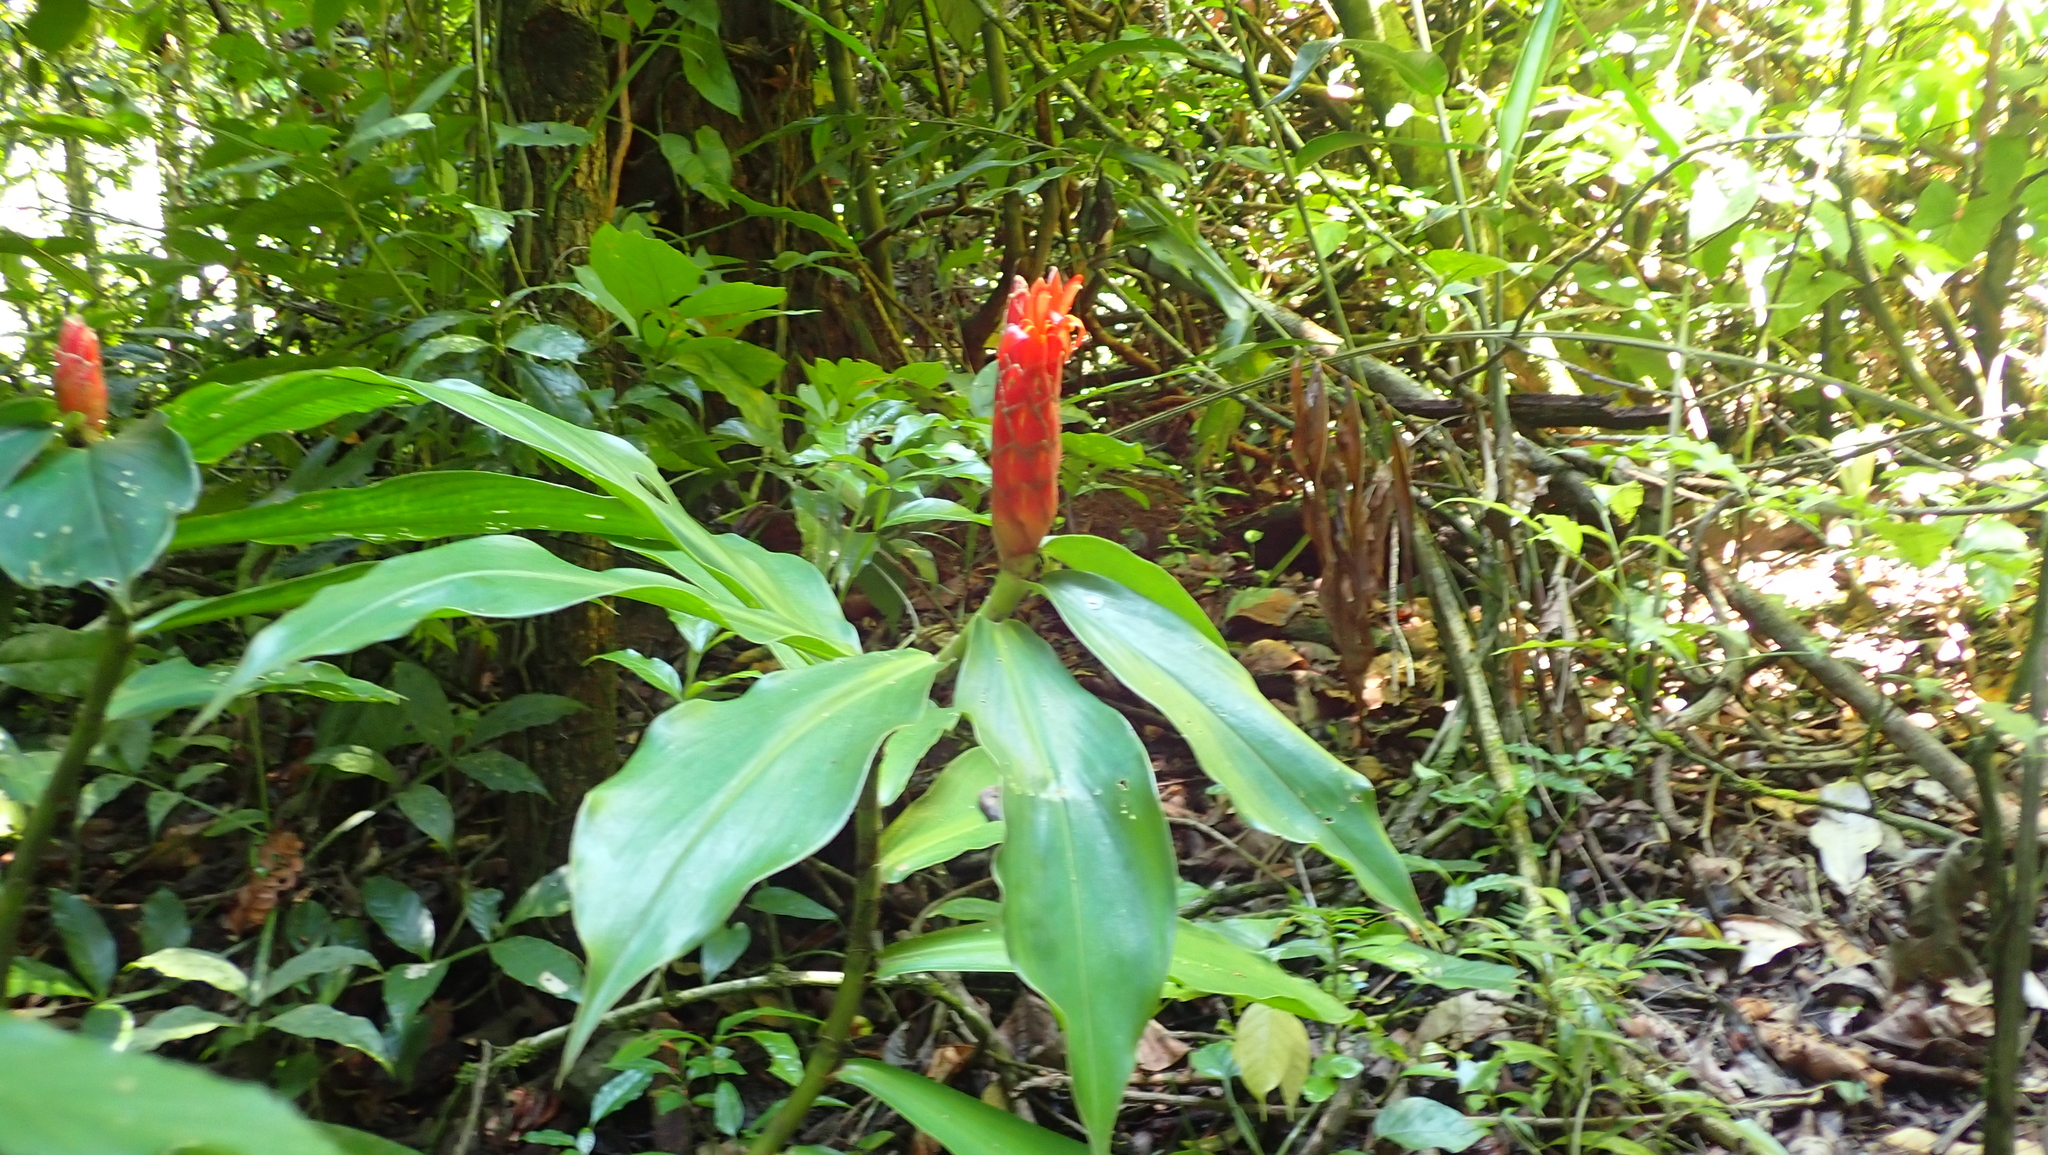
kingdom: Plantae
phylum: Tracheophyta
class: Liliopsida
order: Zingiberales
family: Costaceae
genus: Costus
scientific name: Costus pulverulentus
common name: Spiral ginger
